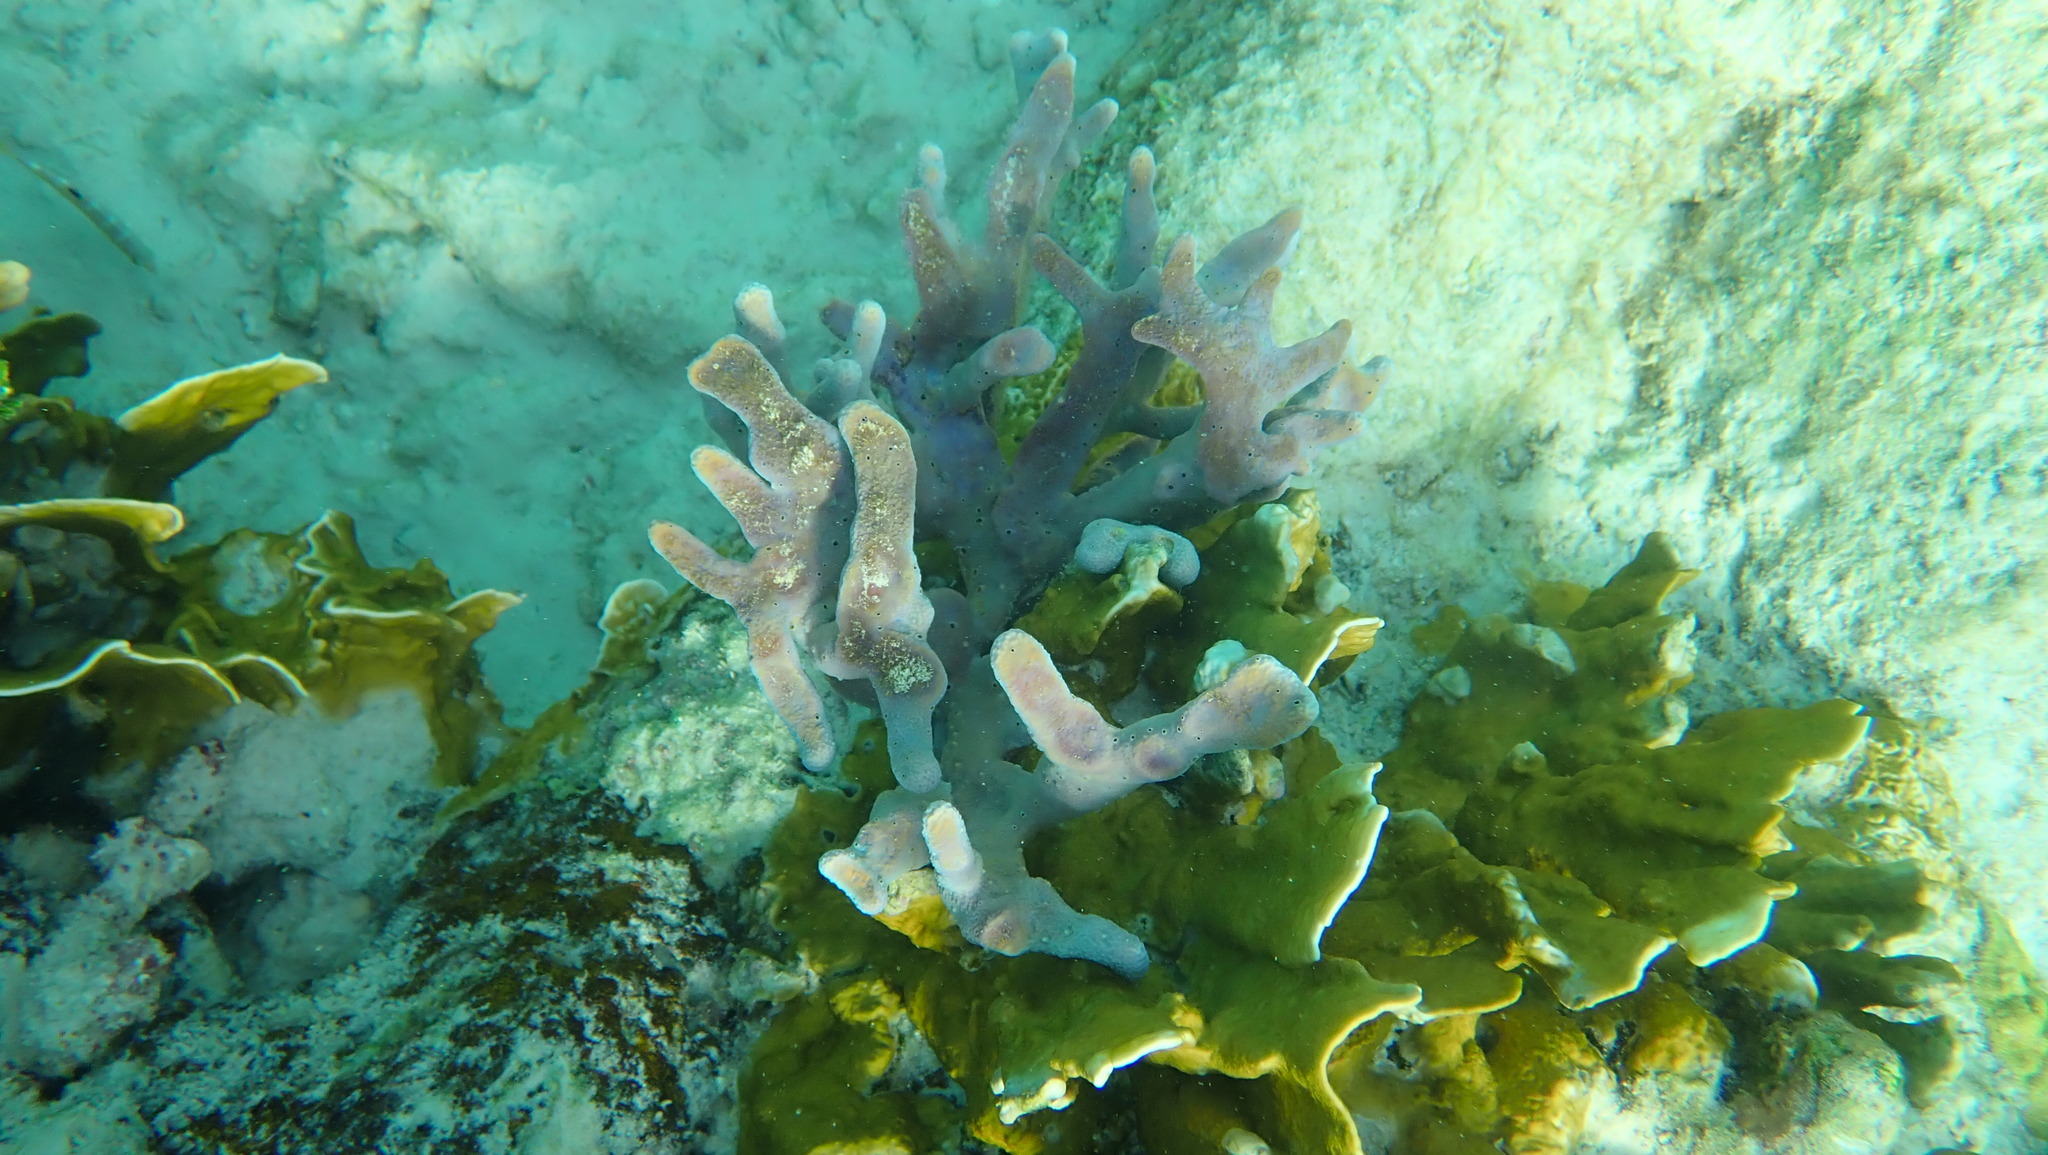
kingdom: Animalia
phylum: Porifera
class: Demospongiae
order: Verongiida
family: Aplysinidae
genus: Aplysina
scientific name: Aplysina cauliformis
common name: Branching candle sponge
